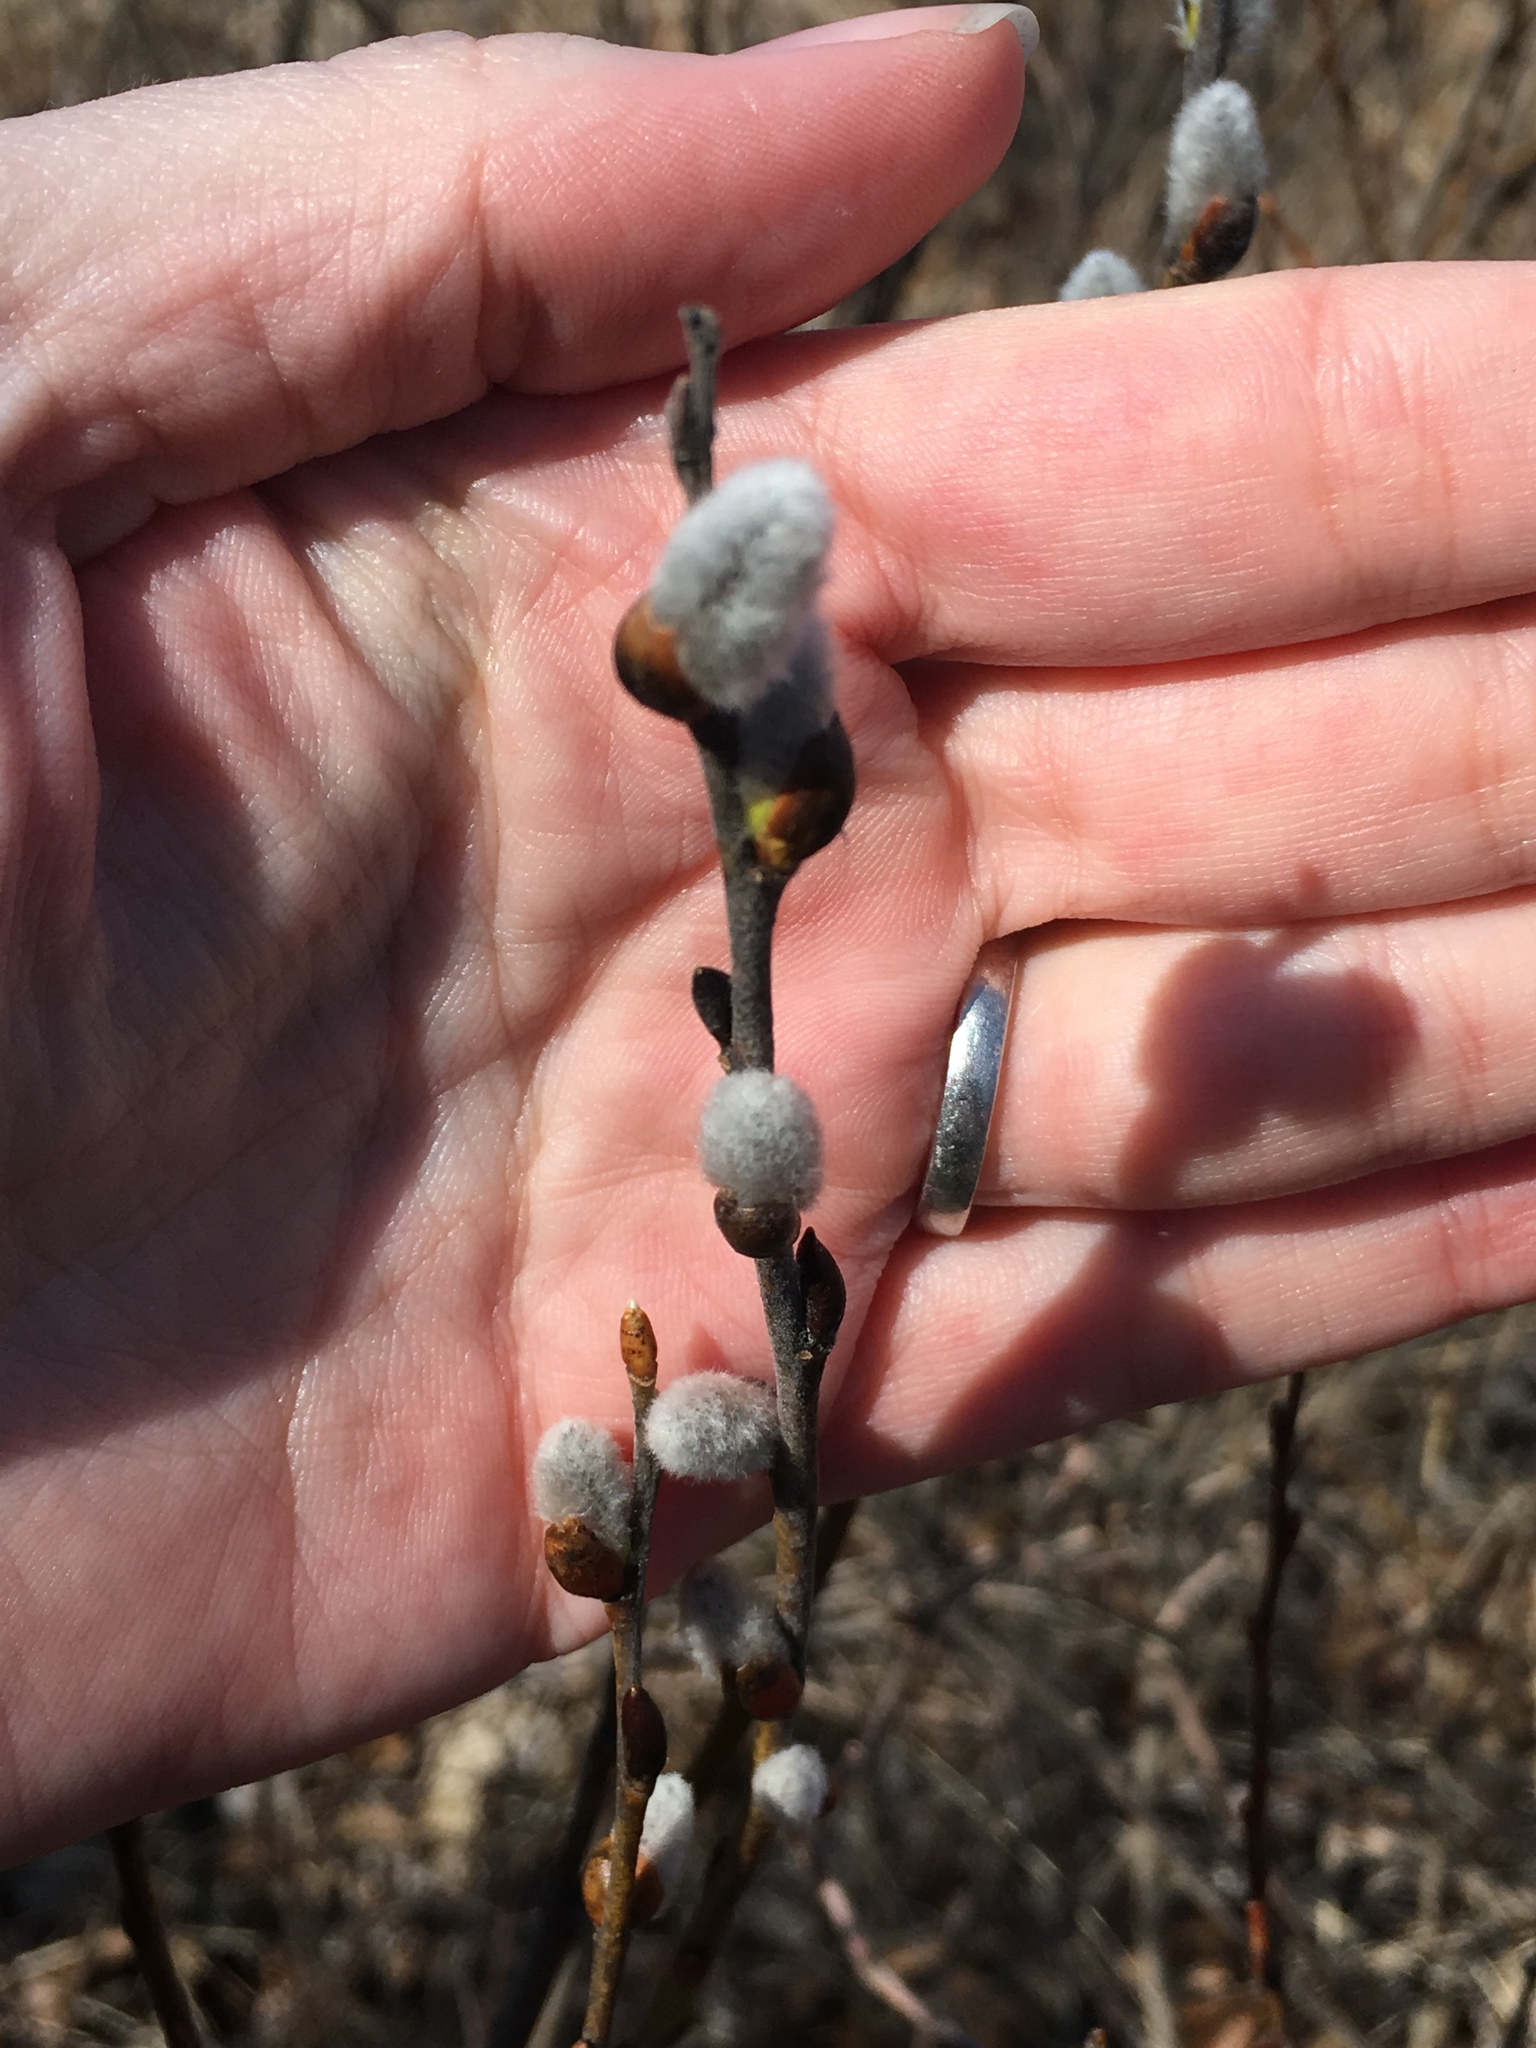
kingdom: Plantae
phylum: Tracheophyta
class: Magnoliopsida
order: Malpighiales
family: Salicaceae
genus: Salix
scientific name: Salix discolor
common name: Glaucous willow
